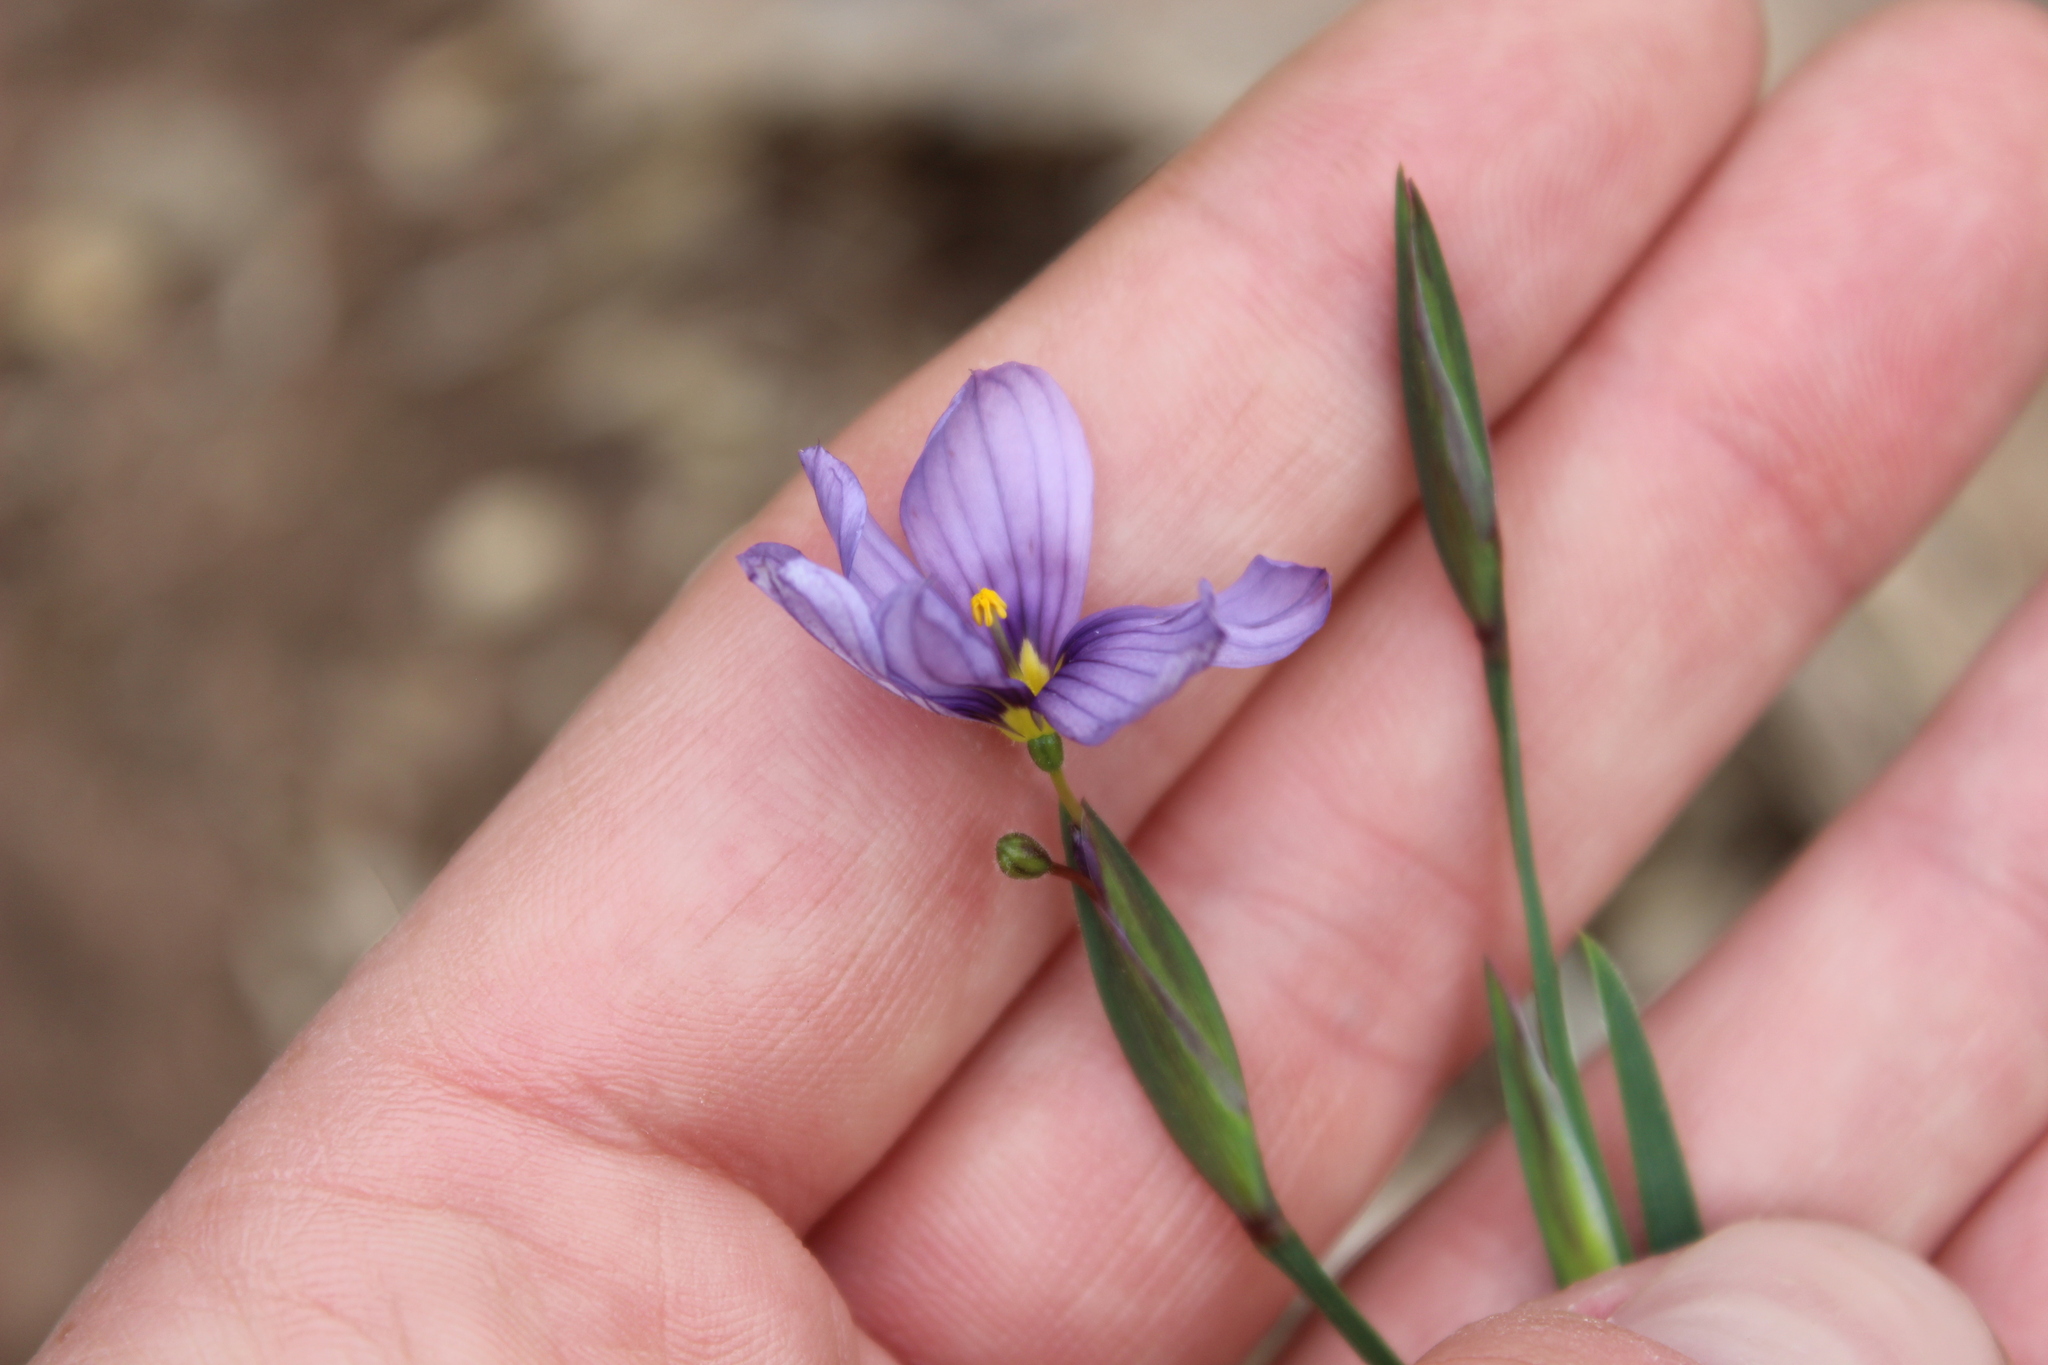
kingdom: Plantae
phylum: Tracheophyta
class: Liliopsida
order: Asparagales
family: Iridaceae
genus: Sisyrinchium
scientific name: Sisyrinchium bellum
